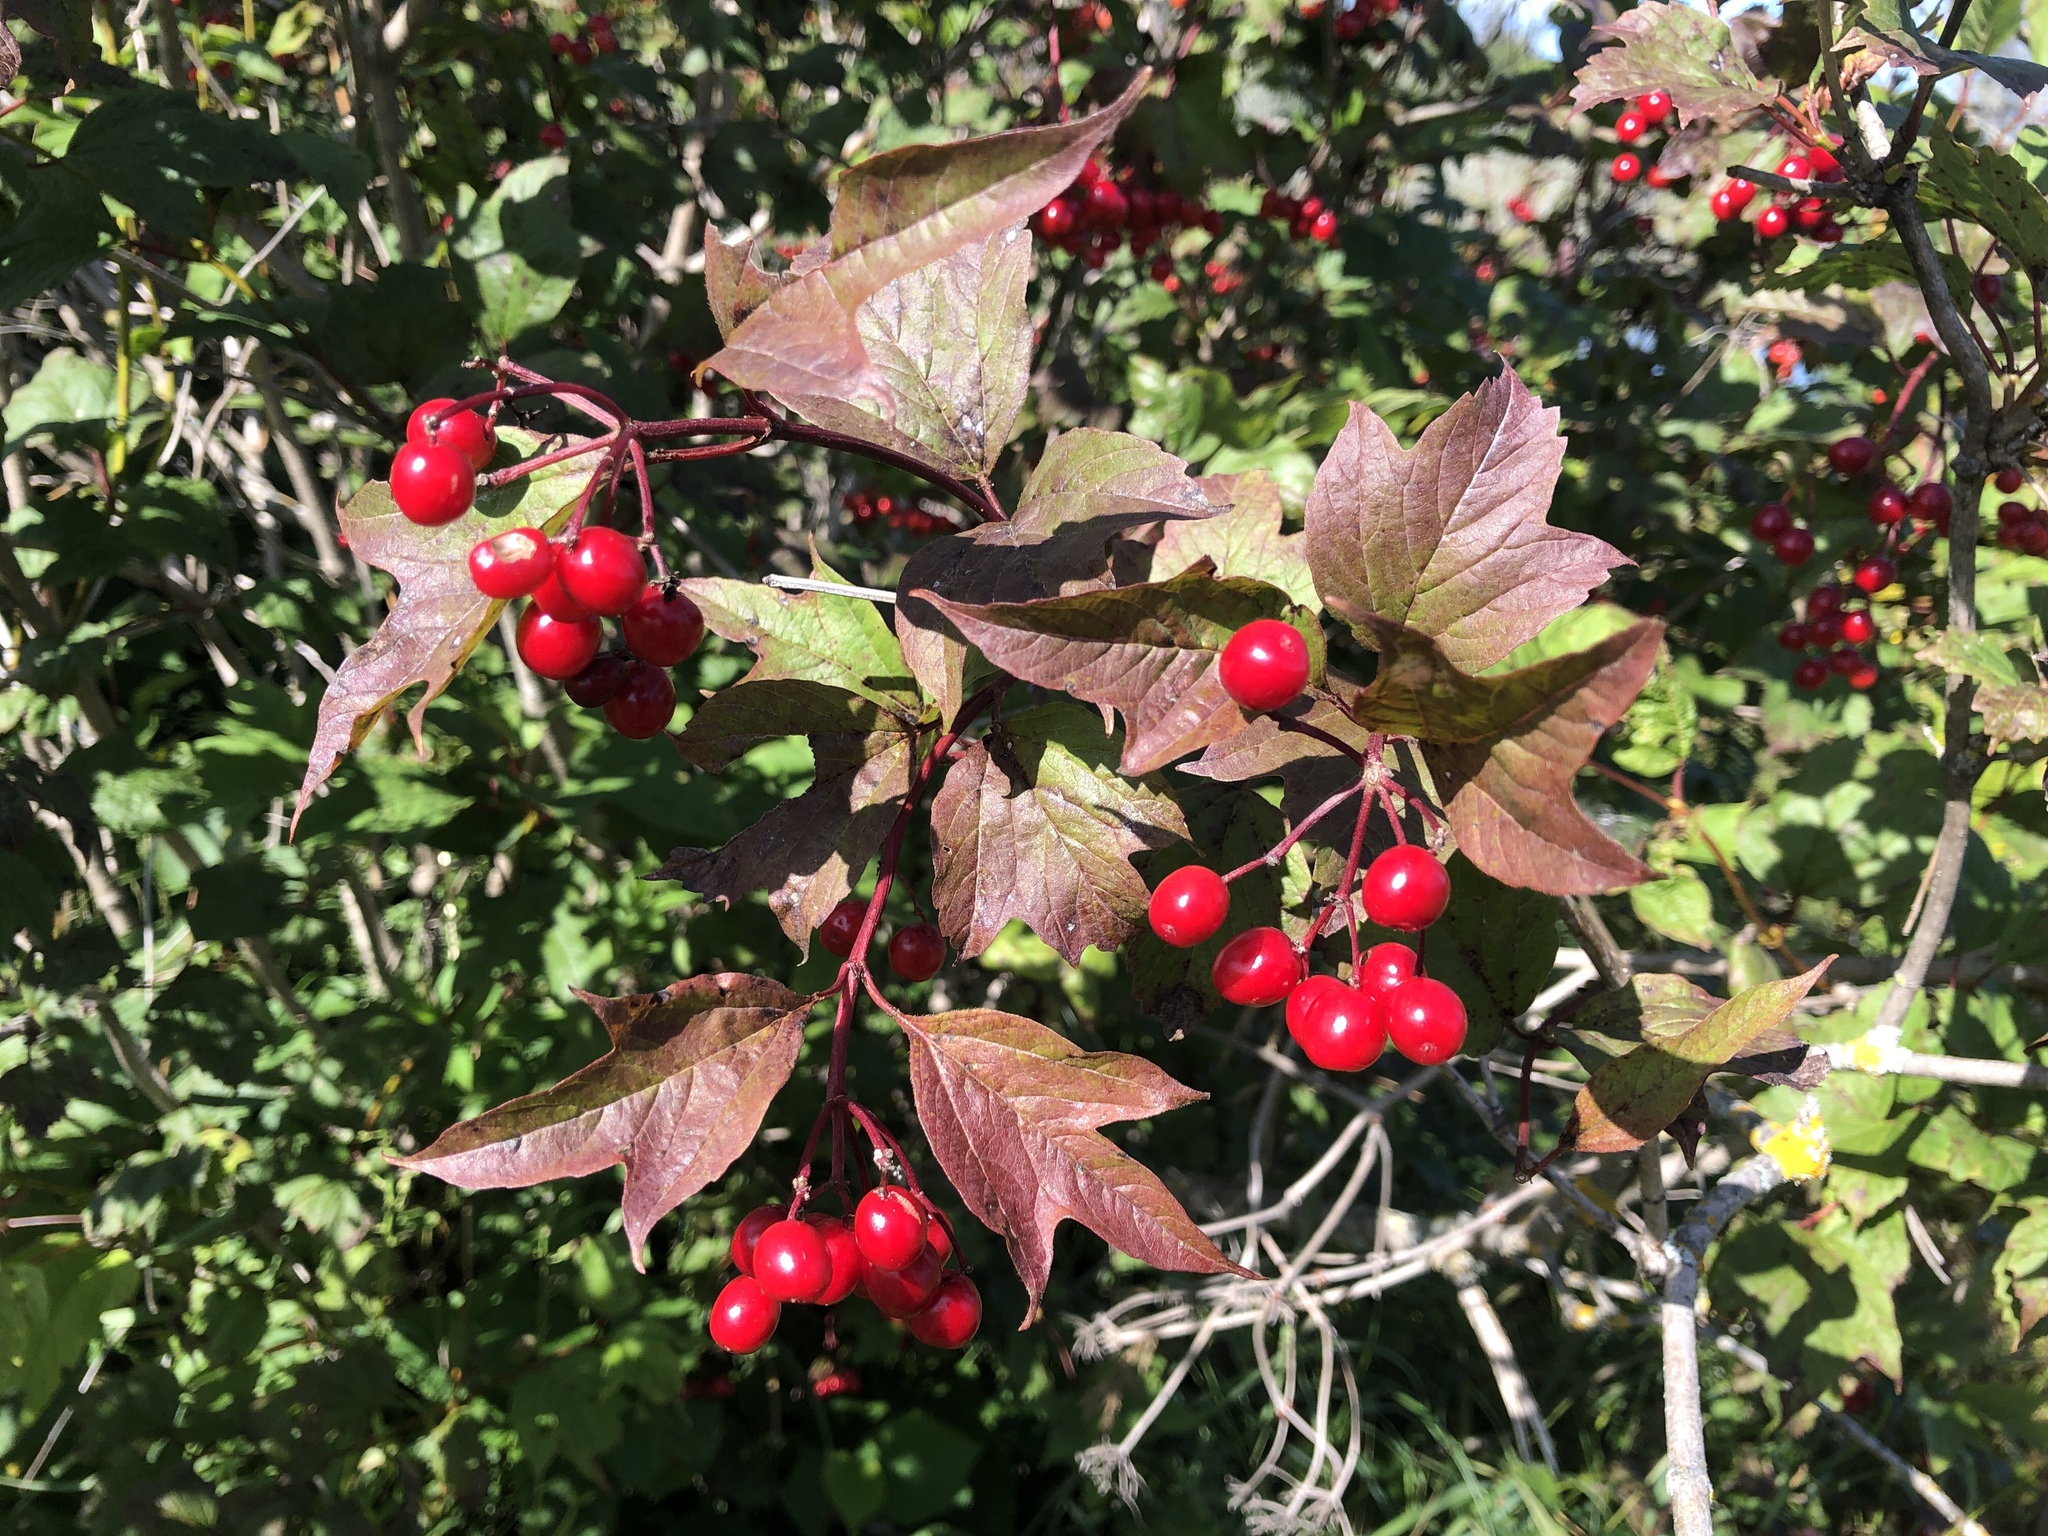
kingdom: Plantae
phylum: Tracheophyta
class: Magnoliopsida
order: Dipsacales
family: Viburnaceae
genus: Viburnum
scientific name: Viburnum opulus
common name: Guelder-rose
